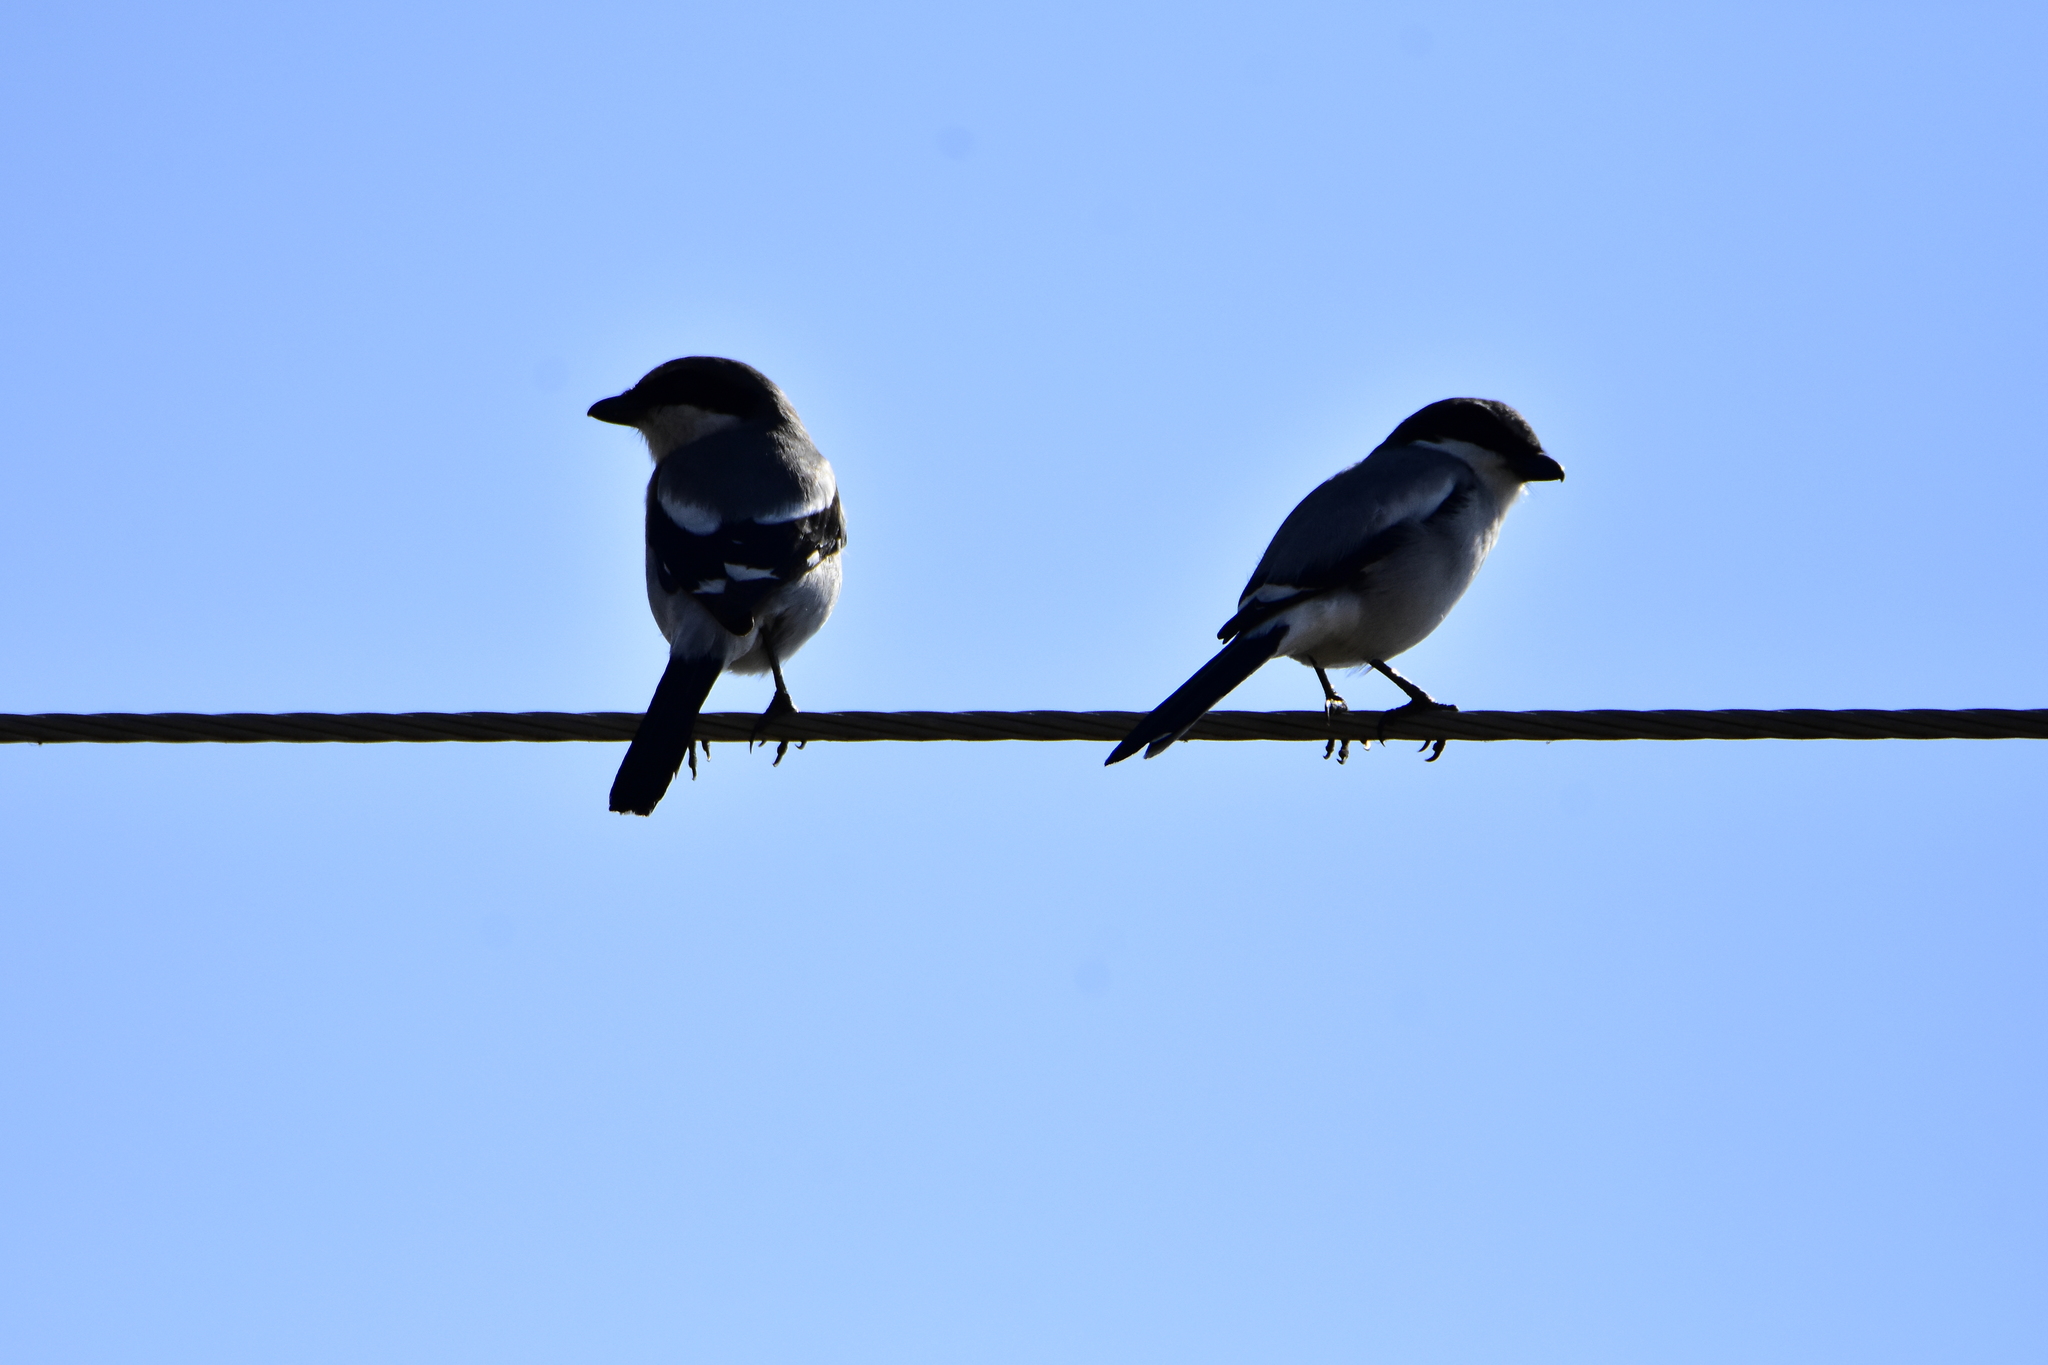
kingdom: Animalia
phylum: Chordata
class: Aves
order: Passeriformes
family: Laniidae
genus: Lanius
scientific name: Lanius ludovicianus
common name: Loggerhead shrike
